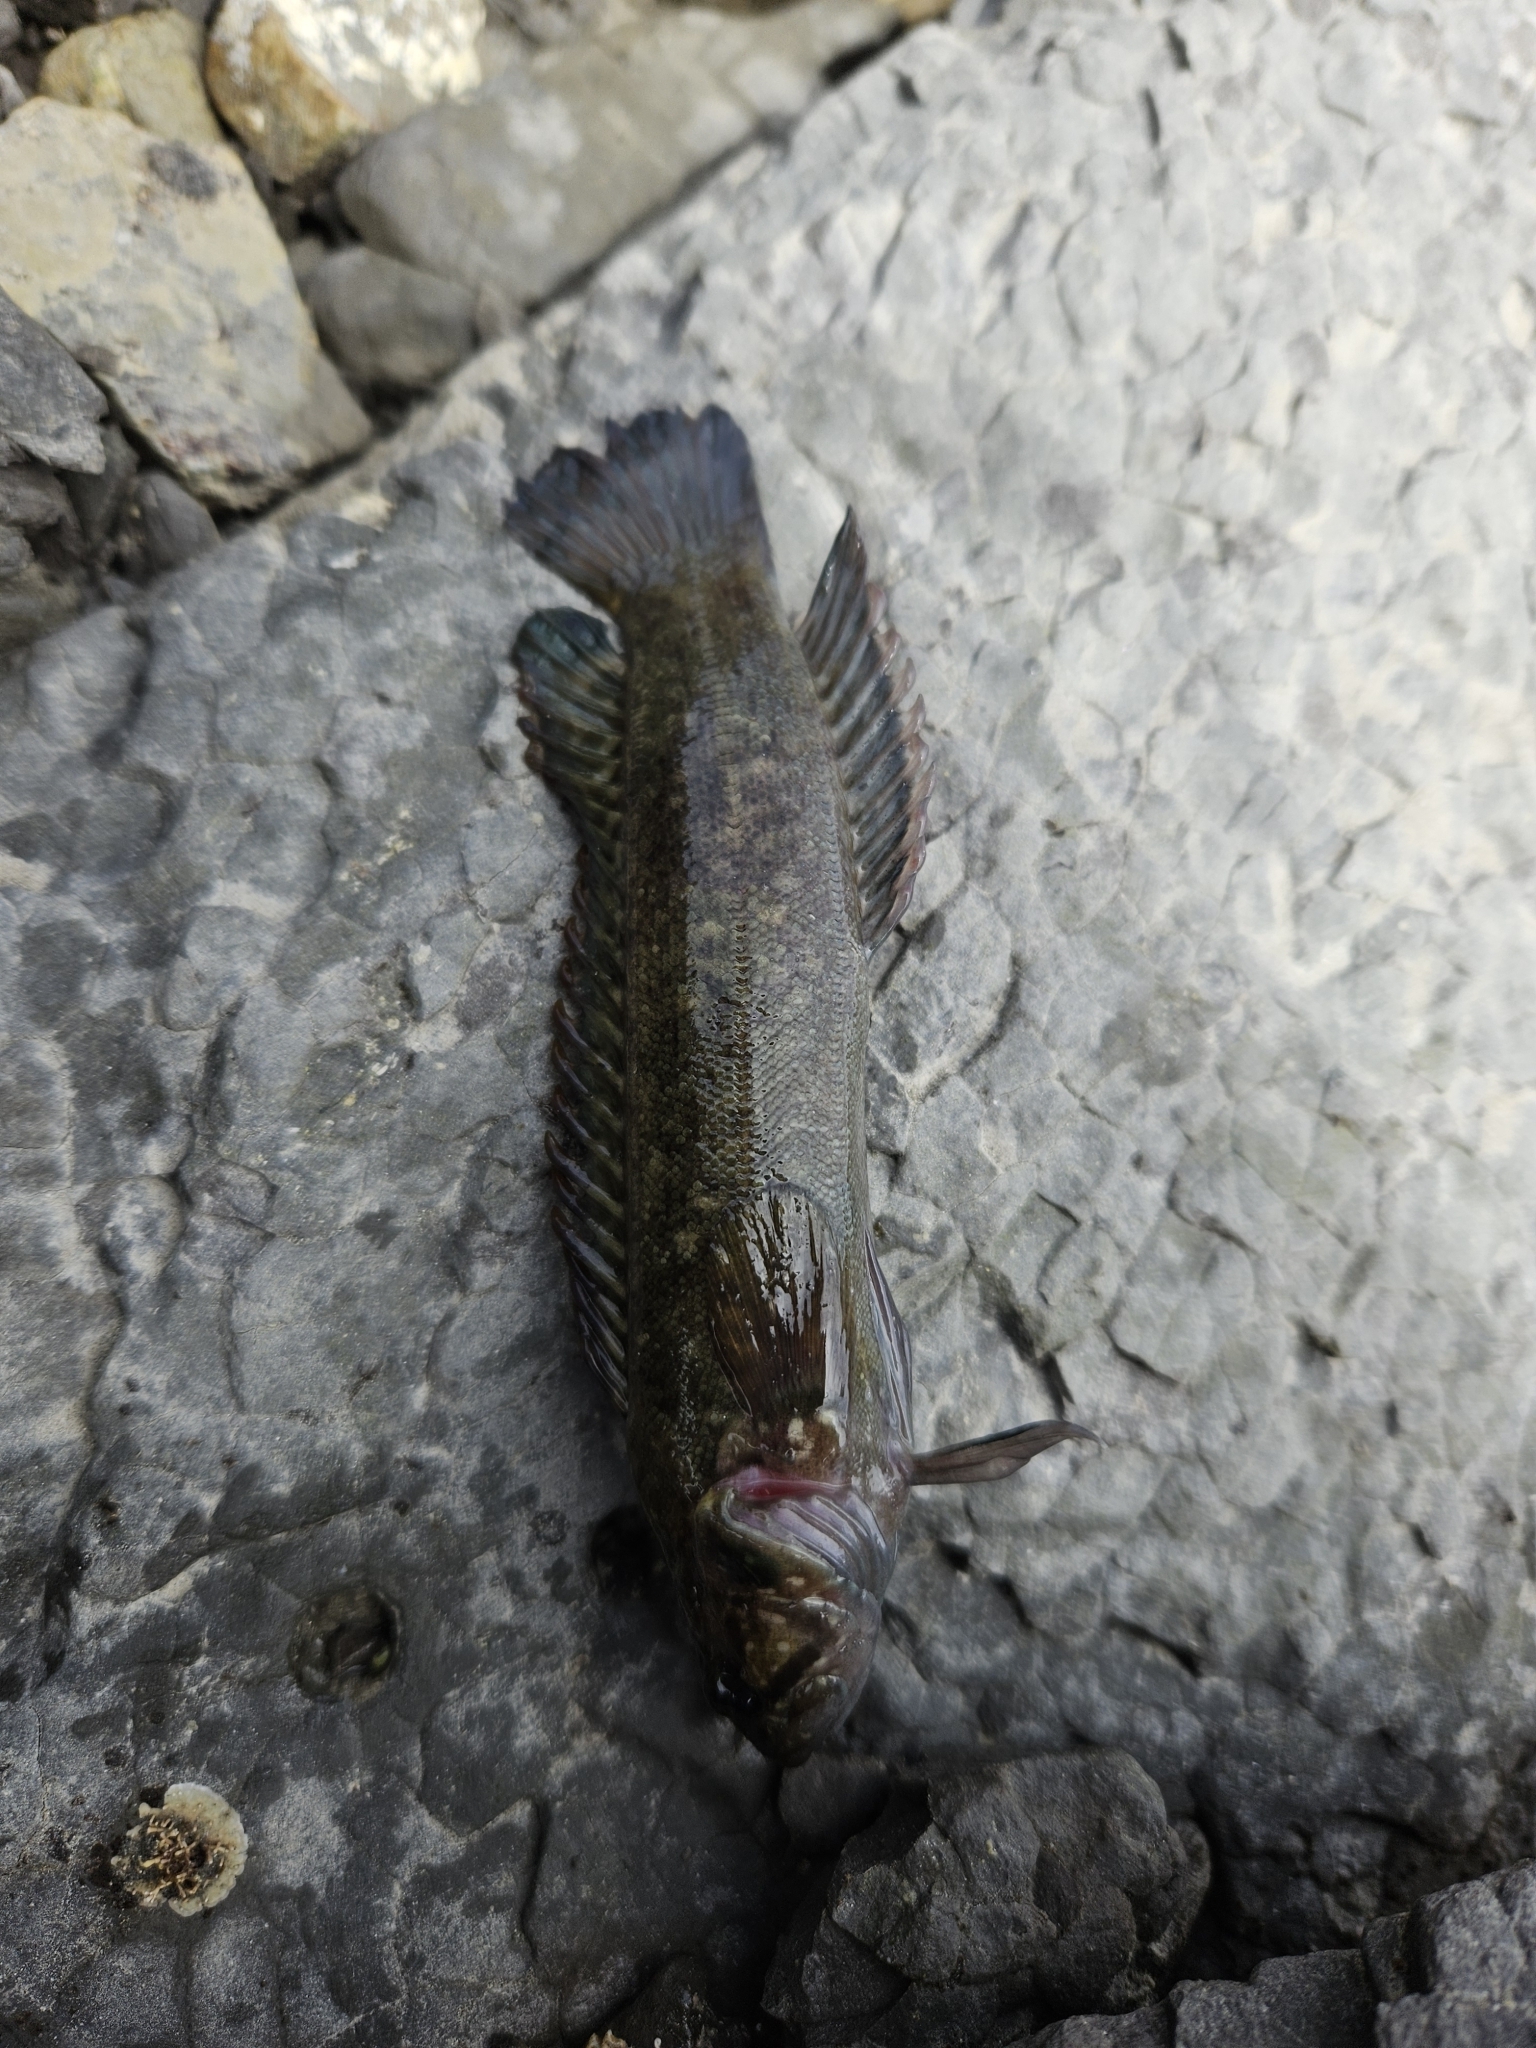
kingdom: Animalia
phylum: Chordata
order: Perciformes
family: Plesiopidae
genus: Acanthoclinus
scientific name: Acanthoclinus fuscus
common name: Olive rockfish
